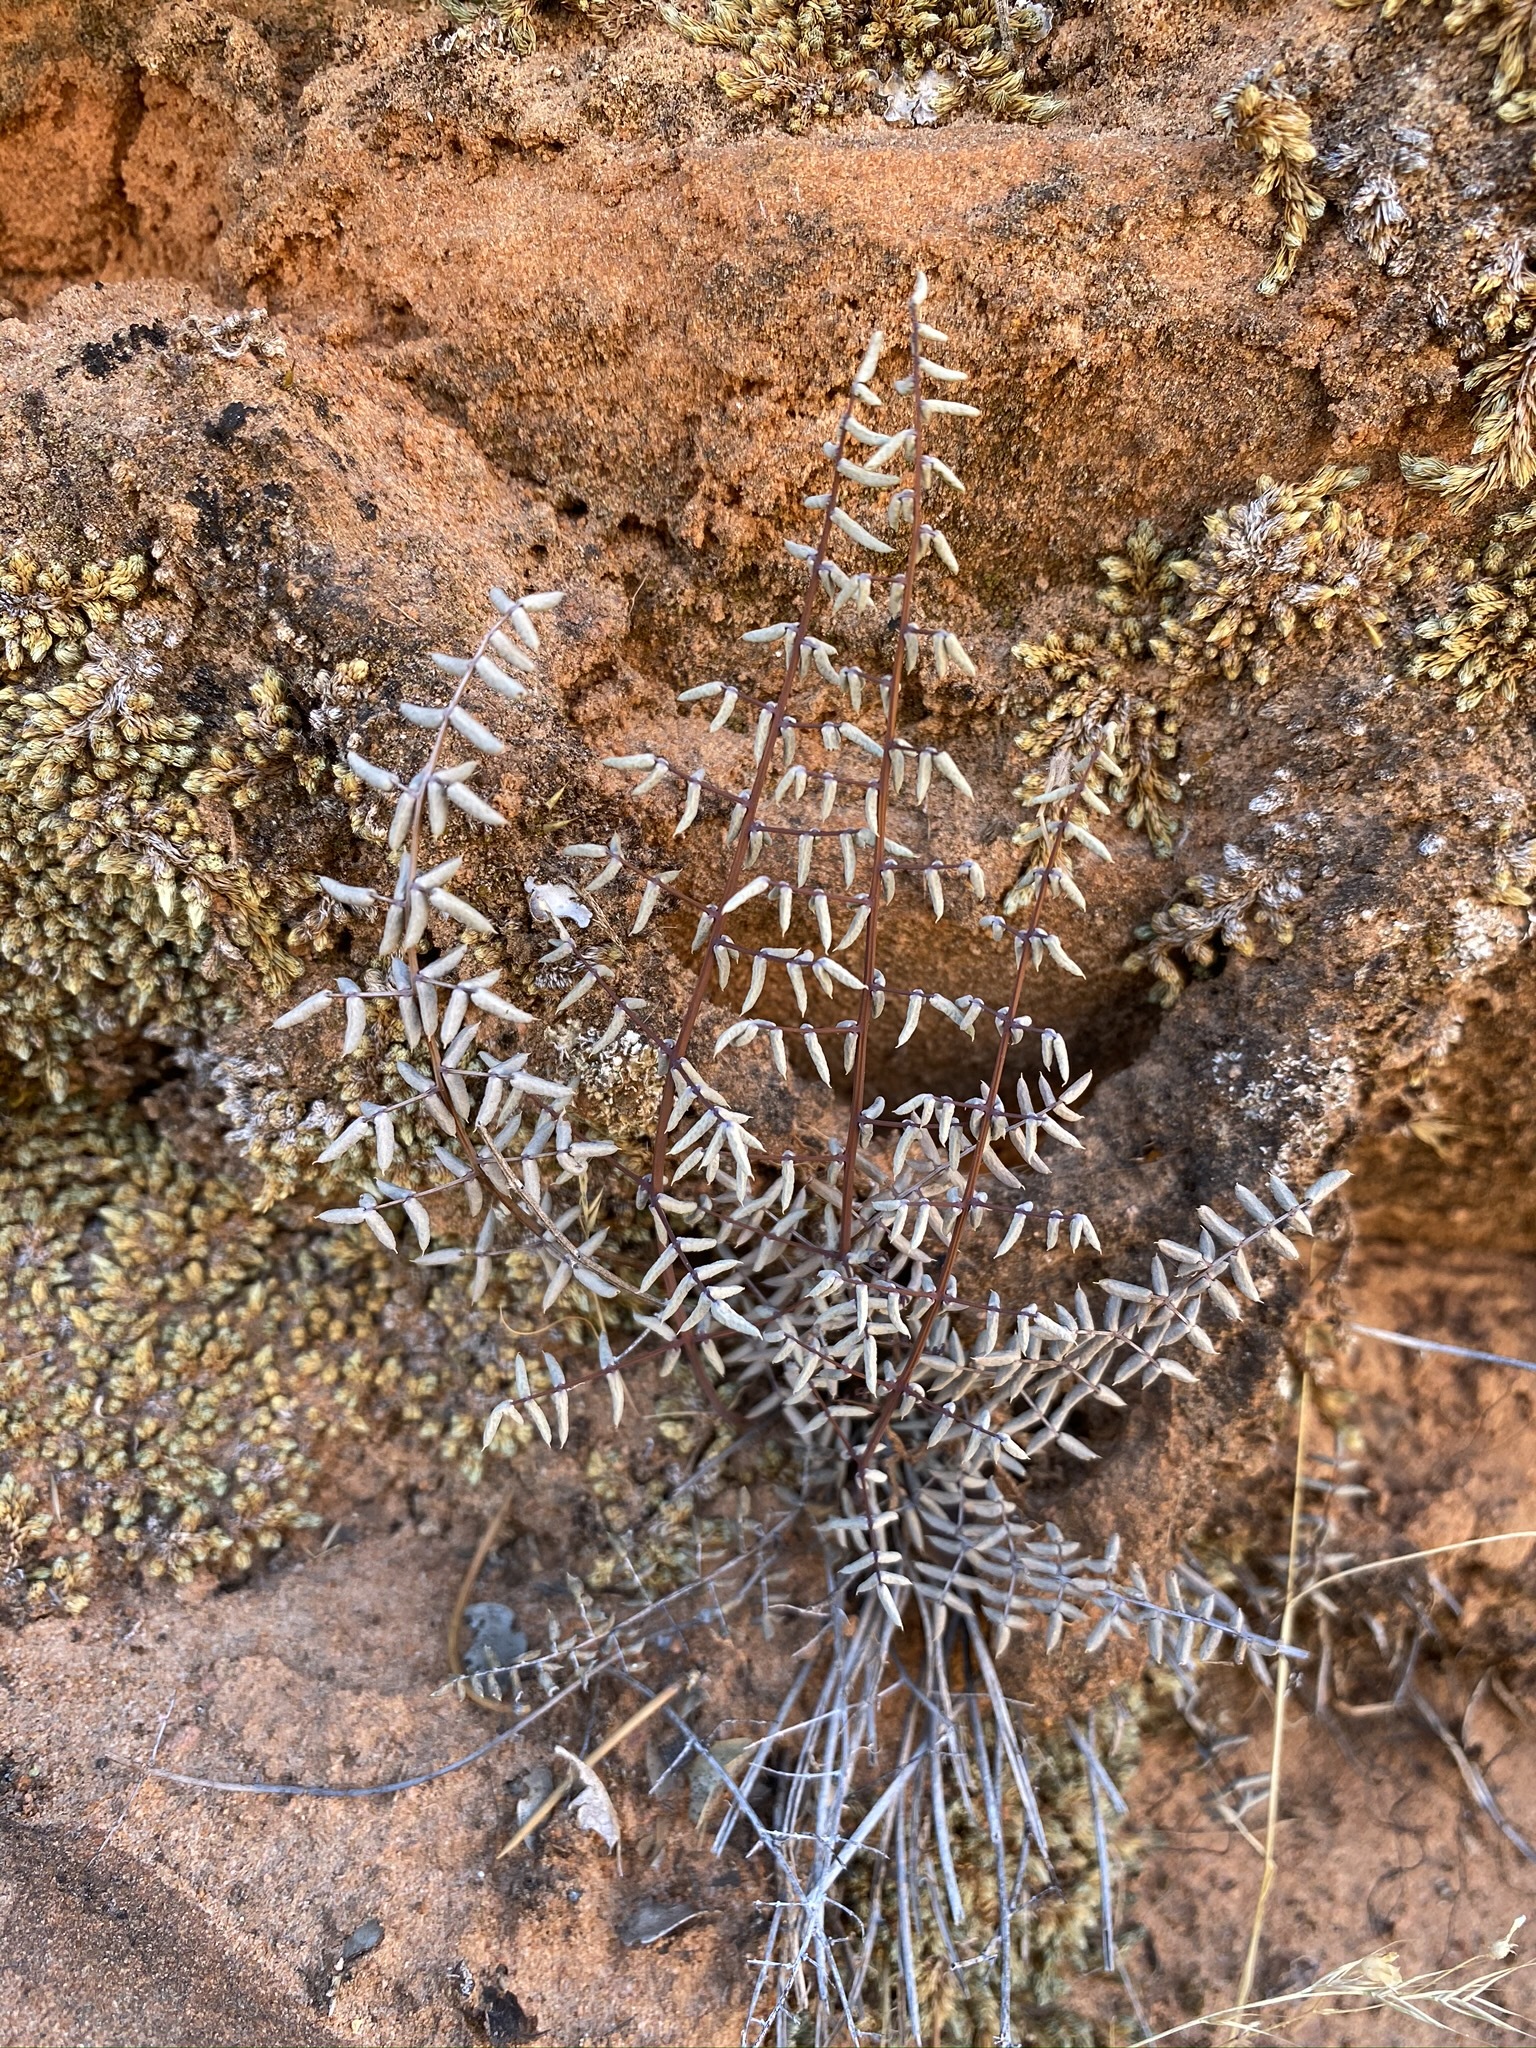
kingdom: Plantae
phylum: Tracheophyta
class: Polypodiopsida
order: Polypodiales
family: Pteridaceae
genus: Pellaea
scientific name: Pellaea truncata
